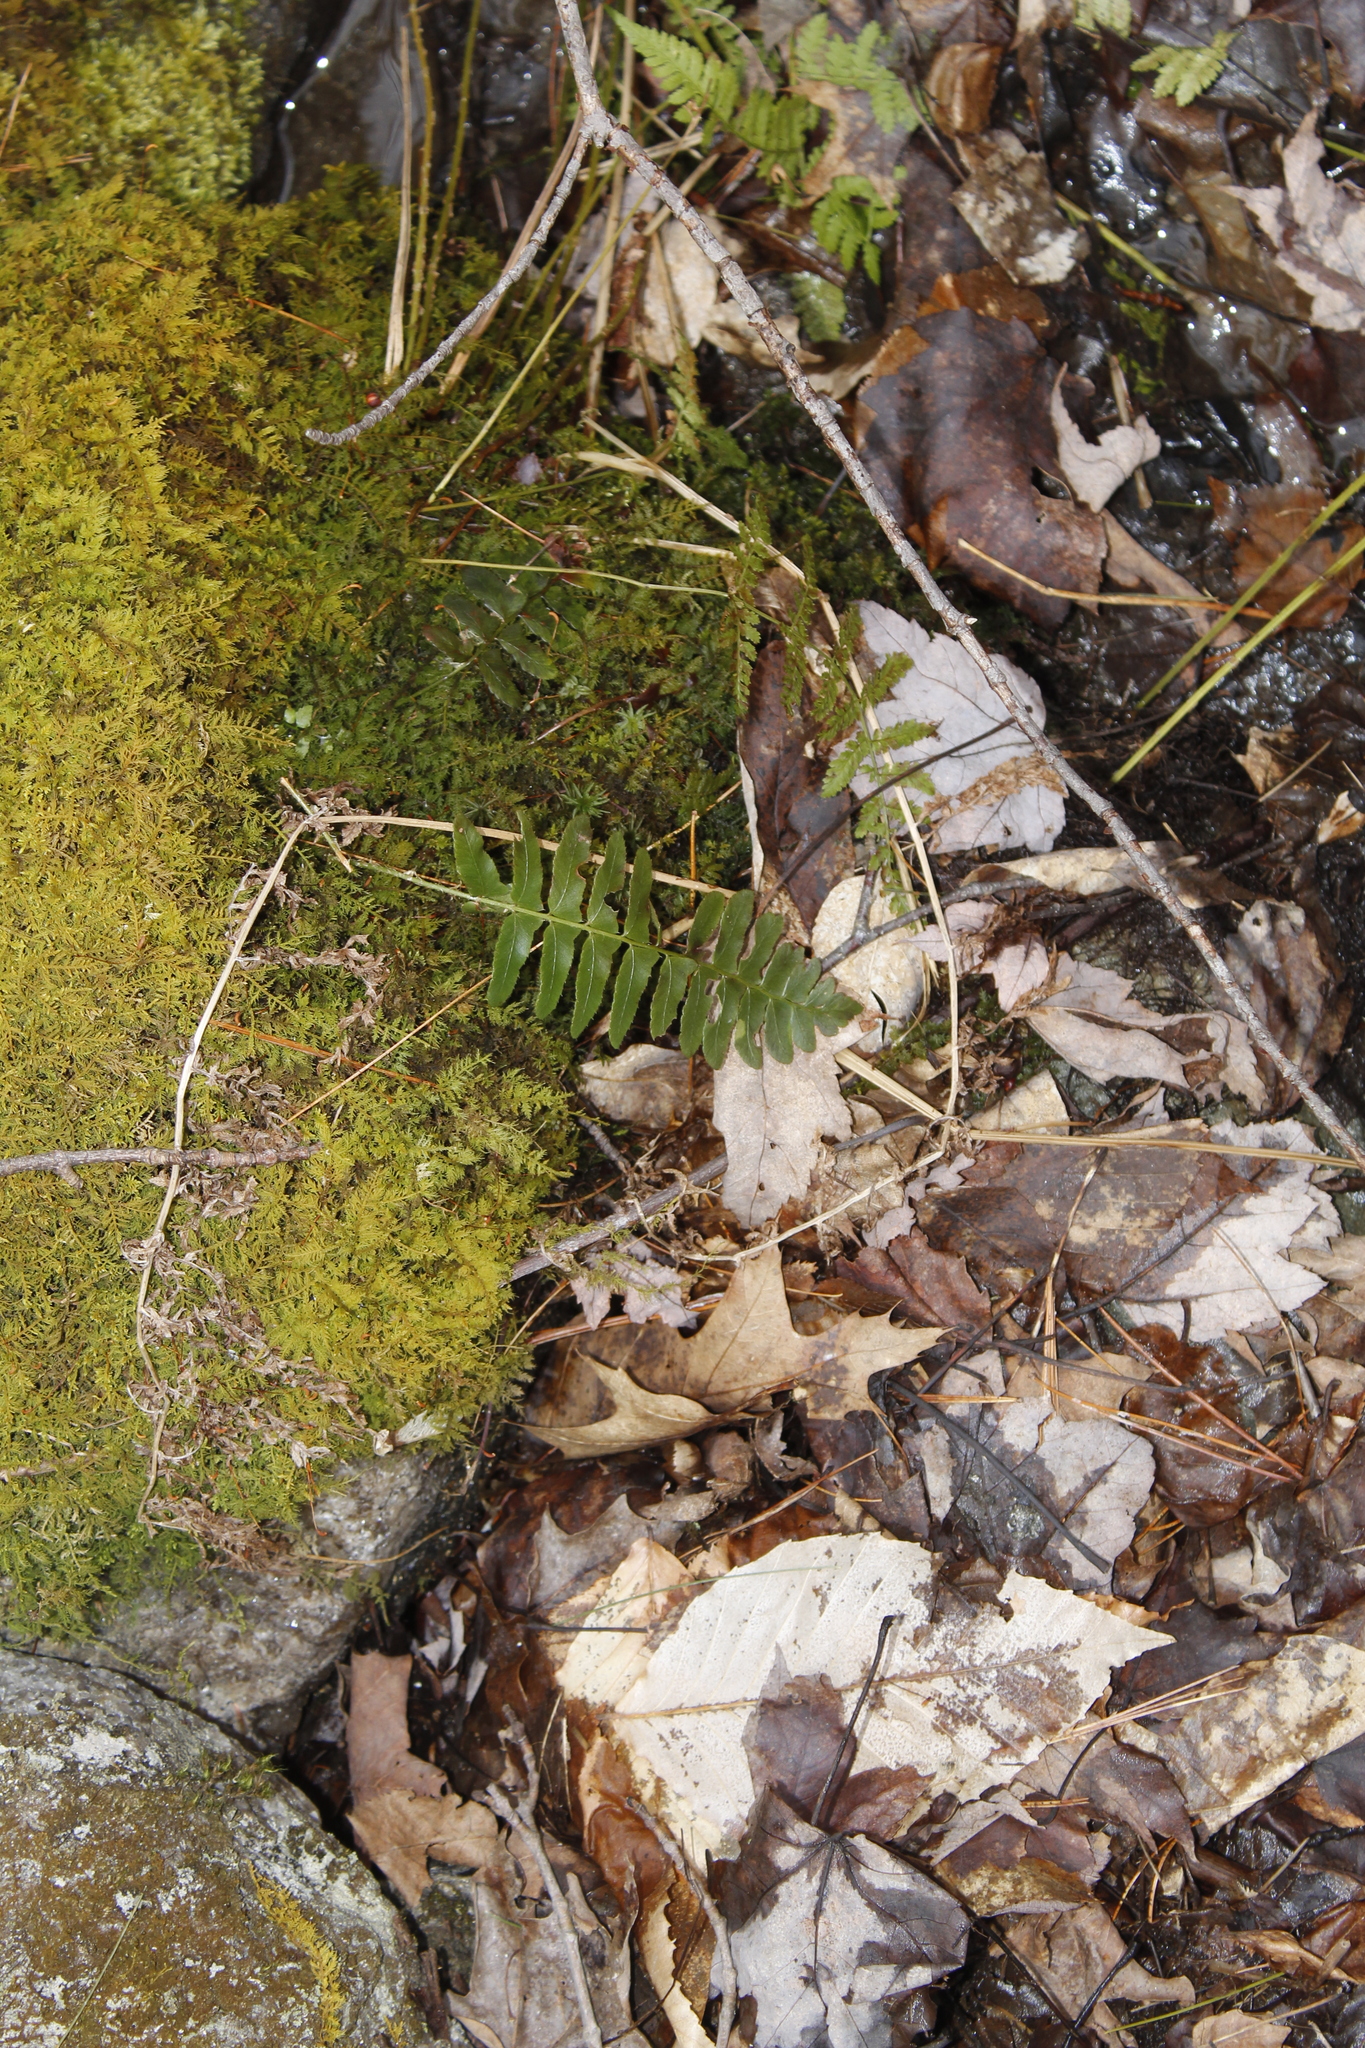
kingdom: Plantae
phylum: Tracheophyta
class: Polypodiopsida
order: Polypodiales
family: Dryopteridaceae
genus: Polystichum
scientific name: Polystichum acrostichoides
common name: Christmas fern
